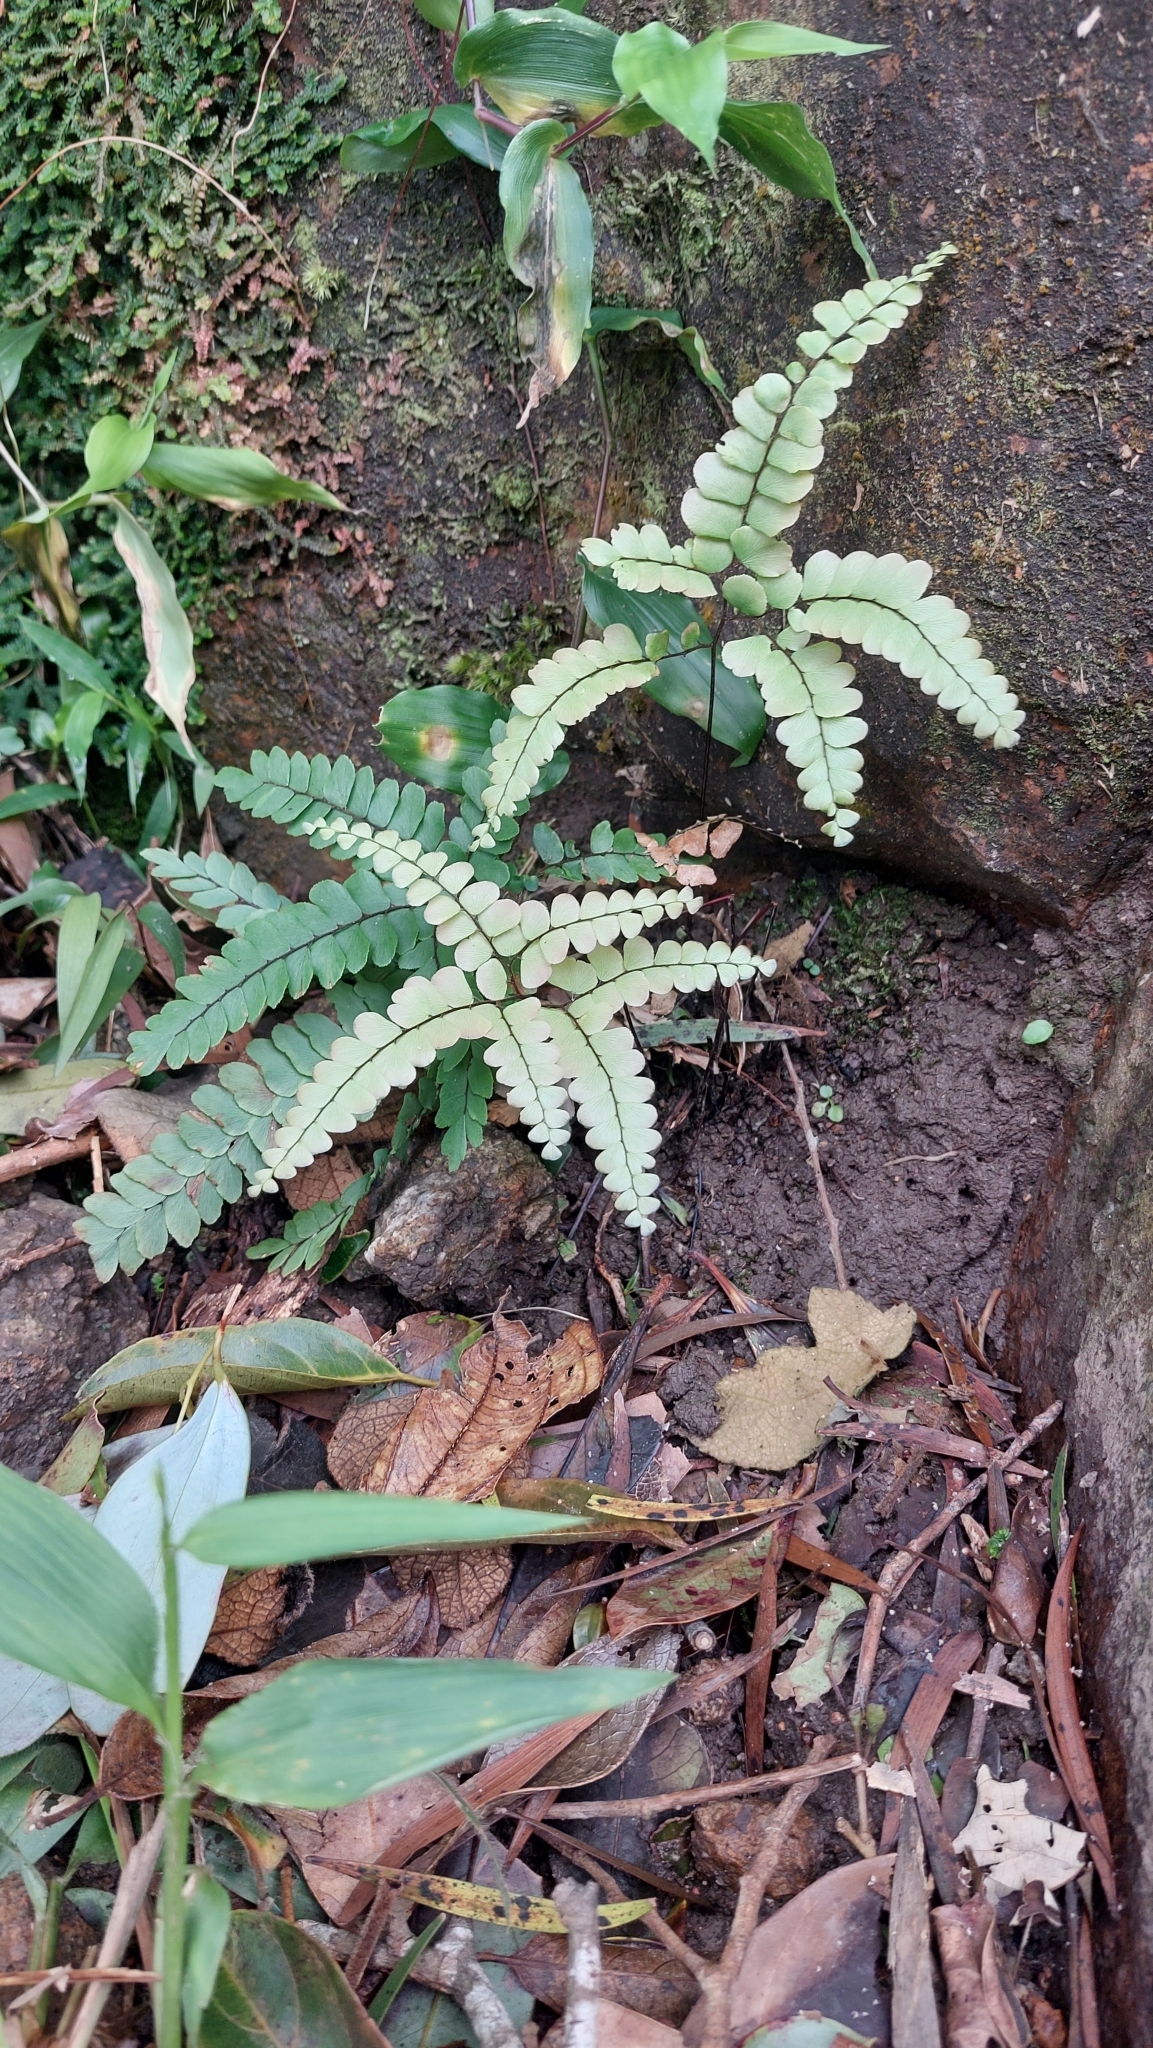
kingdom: Plantae
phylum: Tracheophyta
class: Polypodiopsida
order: Polypodiales
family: Pteridaceae
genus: Adiantum
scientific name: Adiantum flabellulatum
